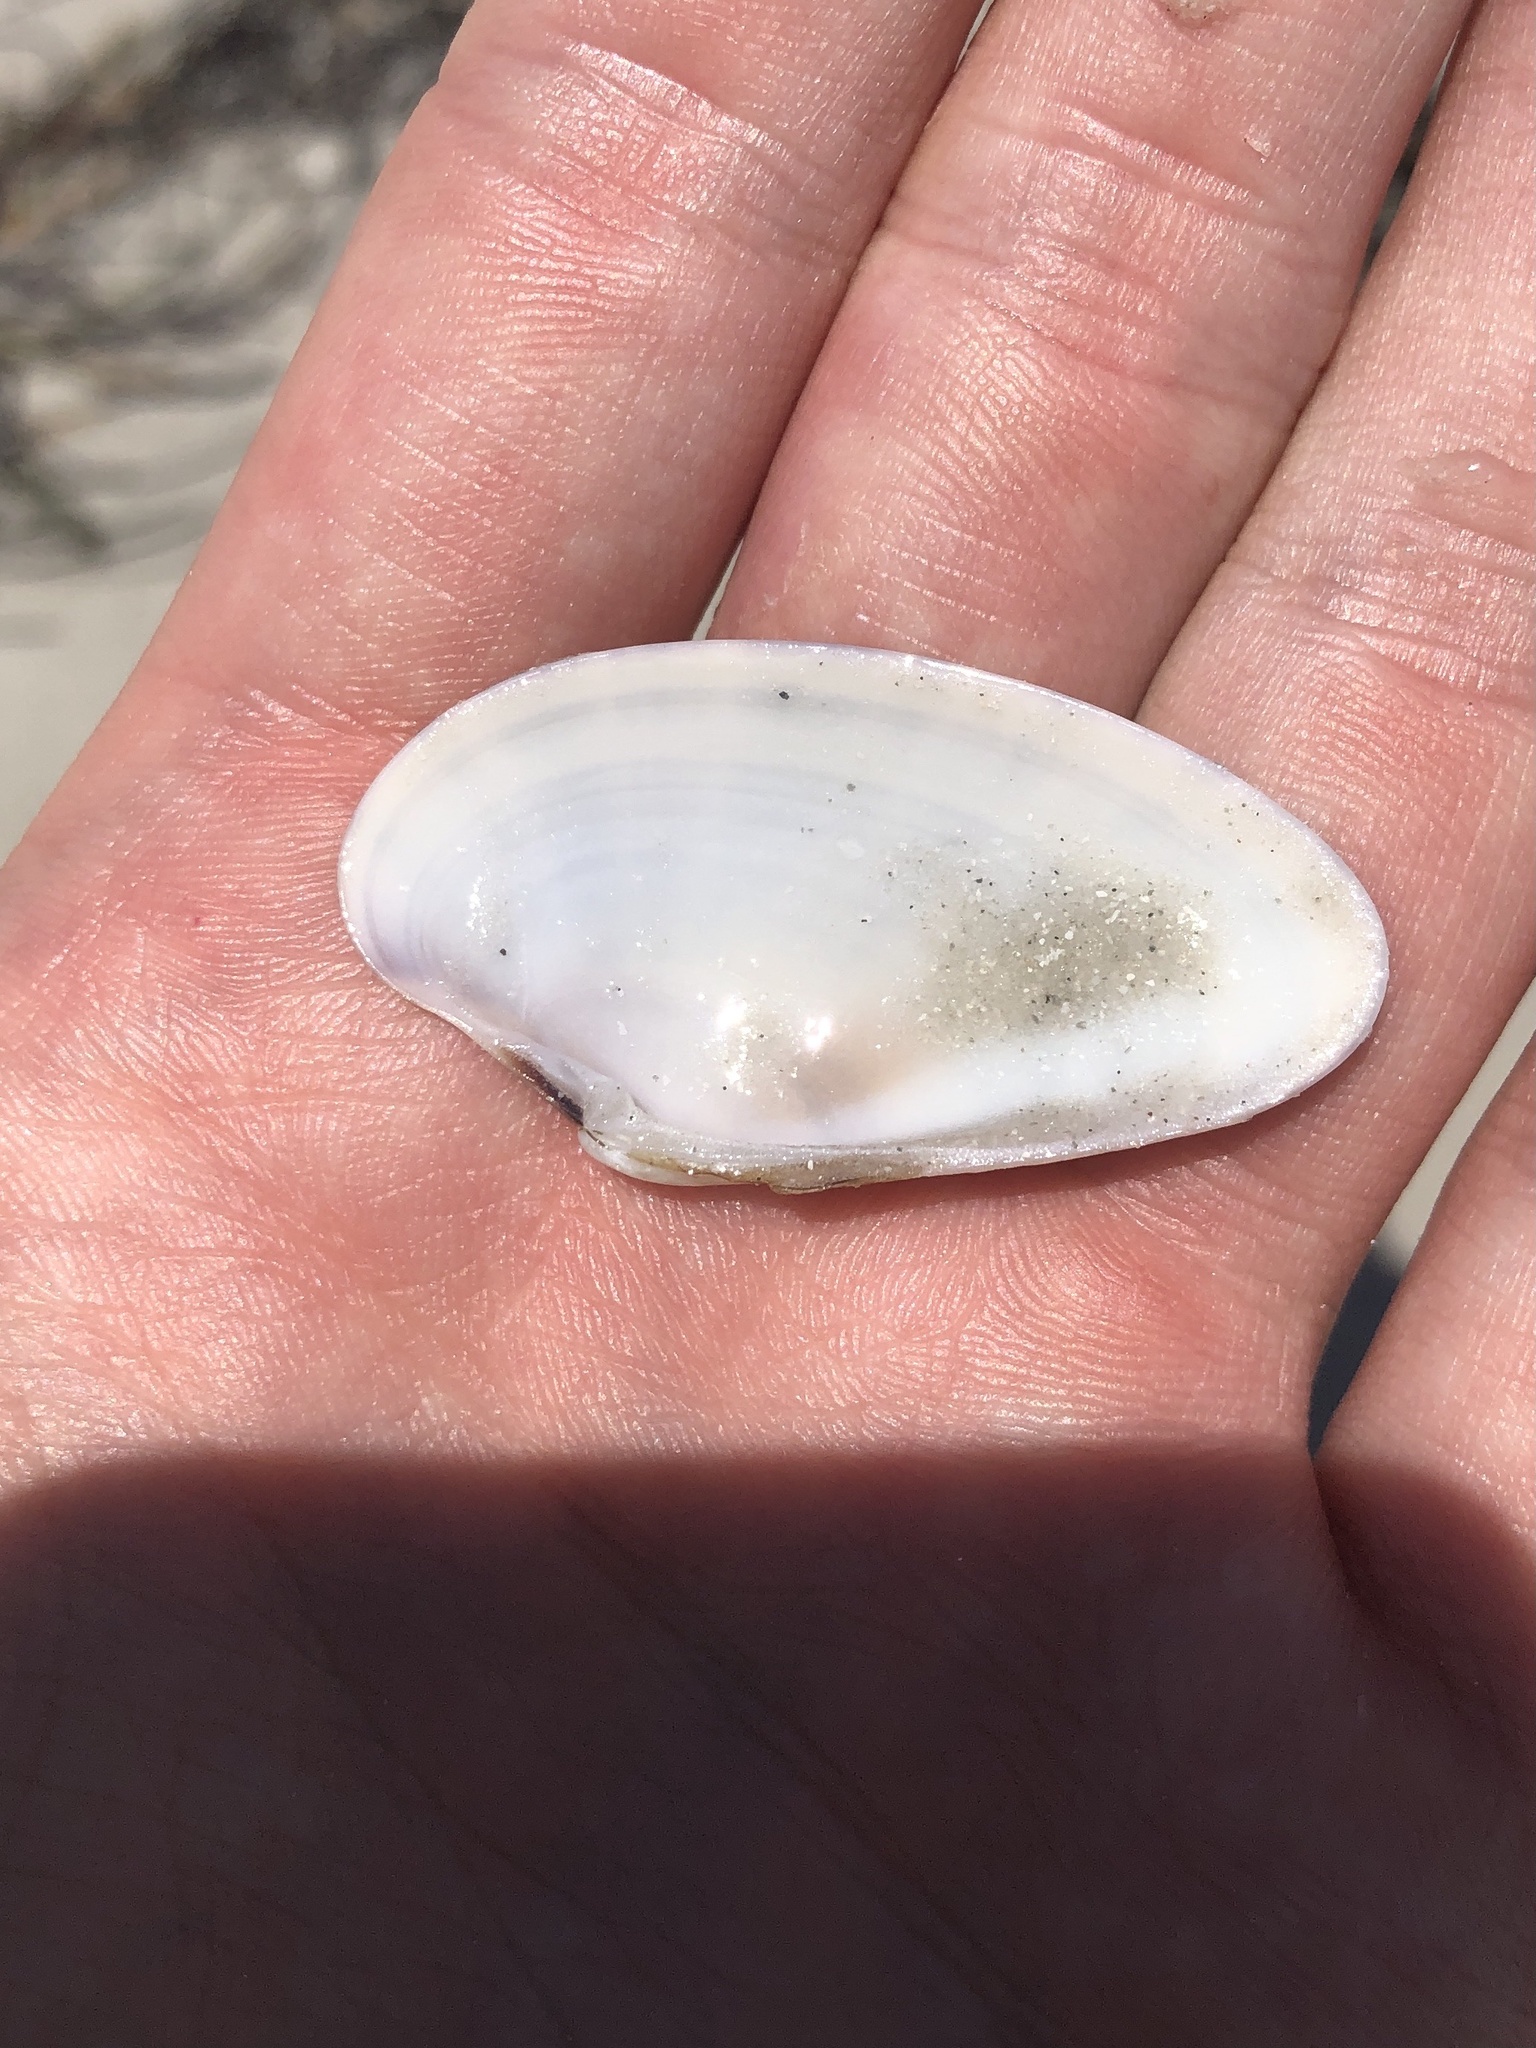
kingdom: Animalia
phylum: Mollusca
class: Bivalvia
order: Venerida
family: Veneridae
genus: Macrocallista
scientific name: Macrocallista nimbosa
